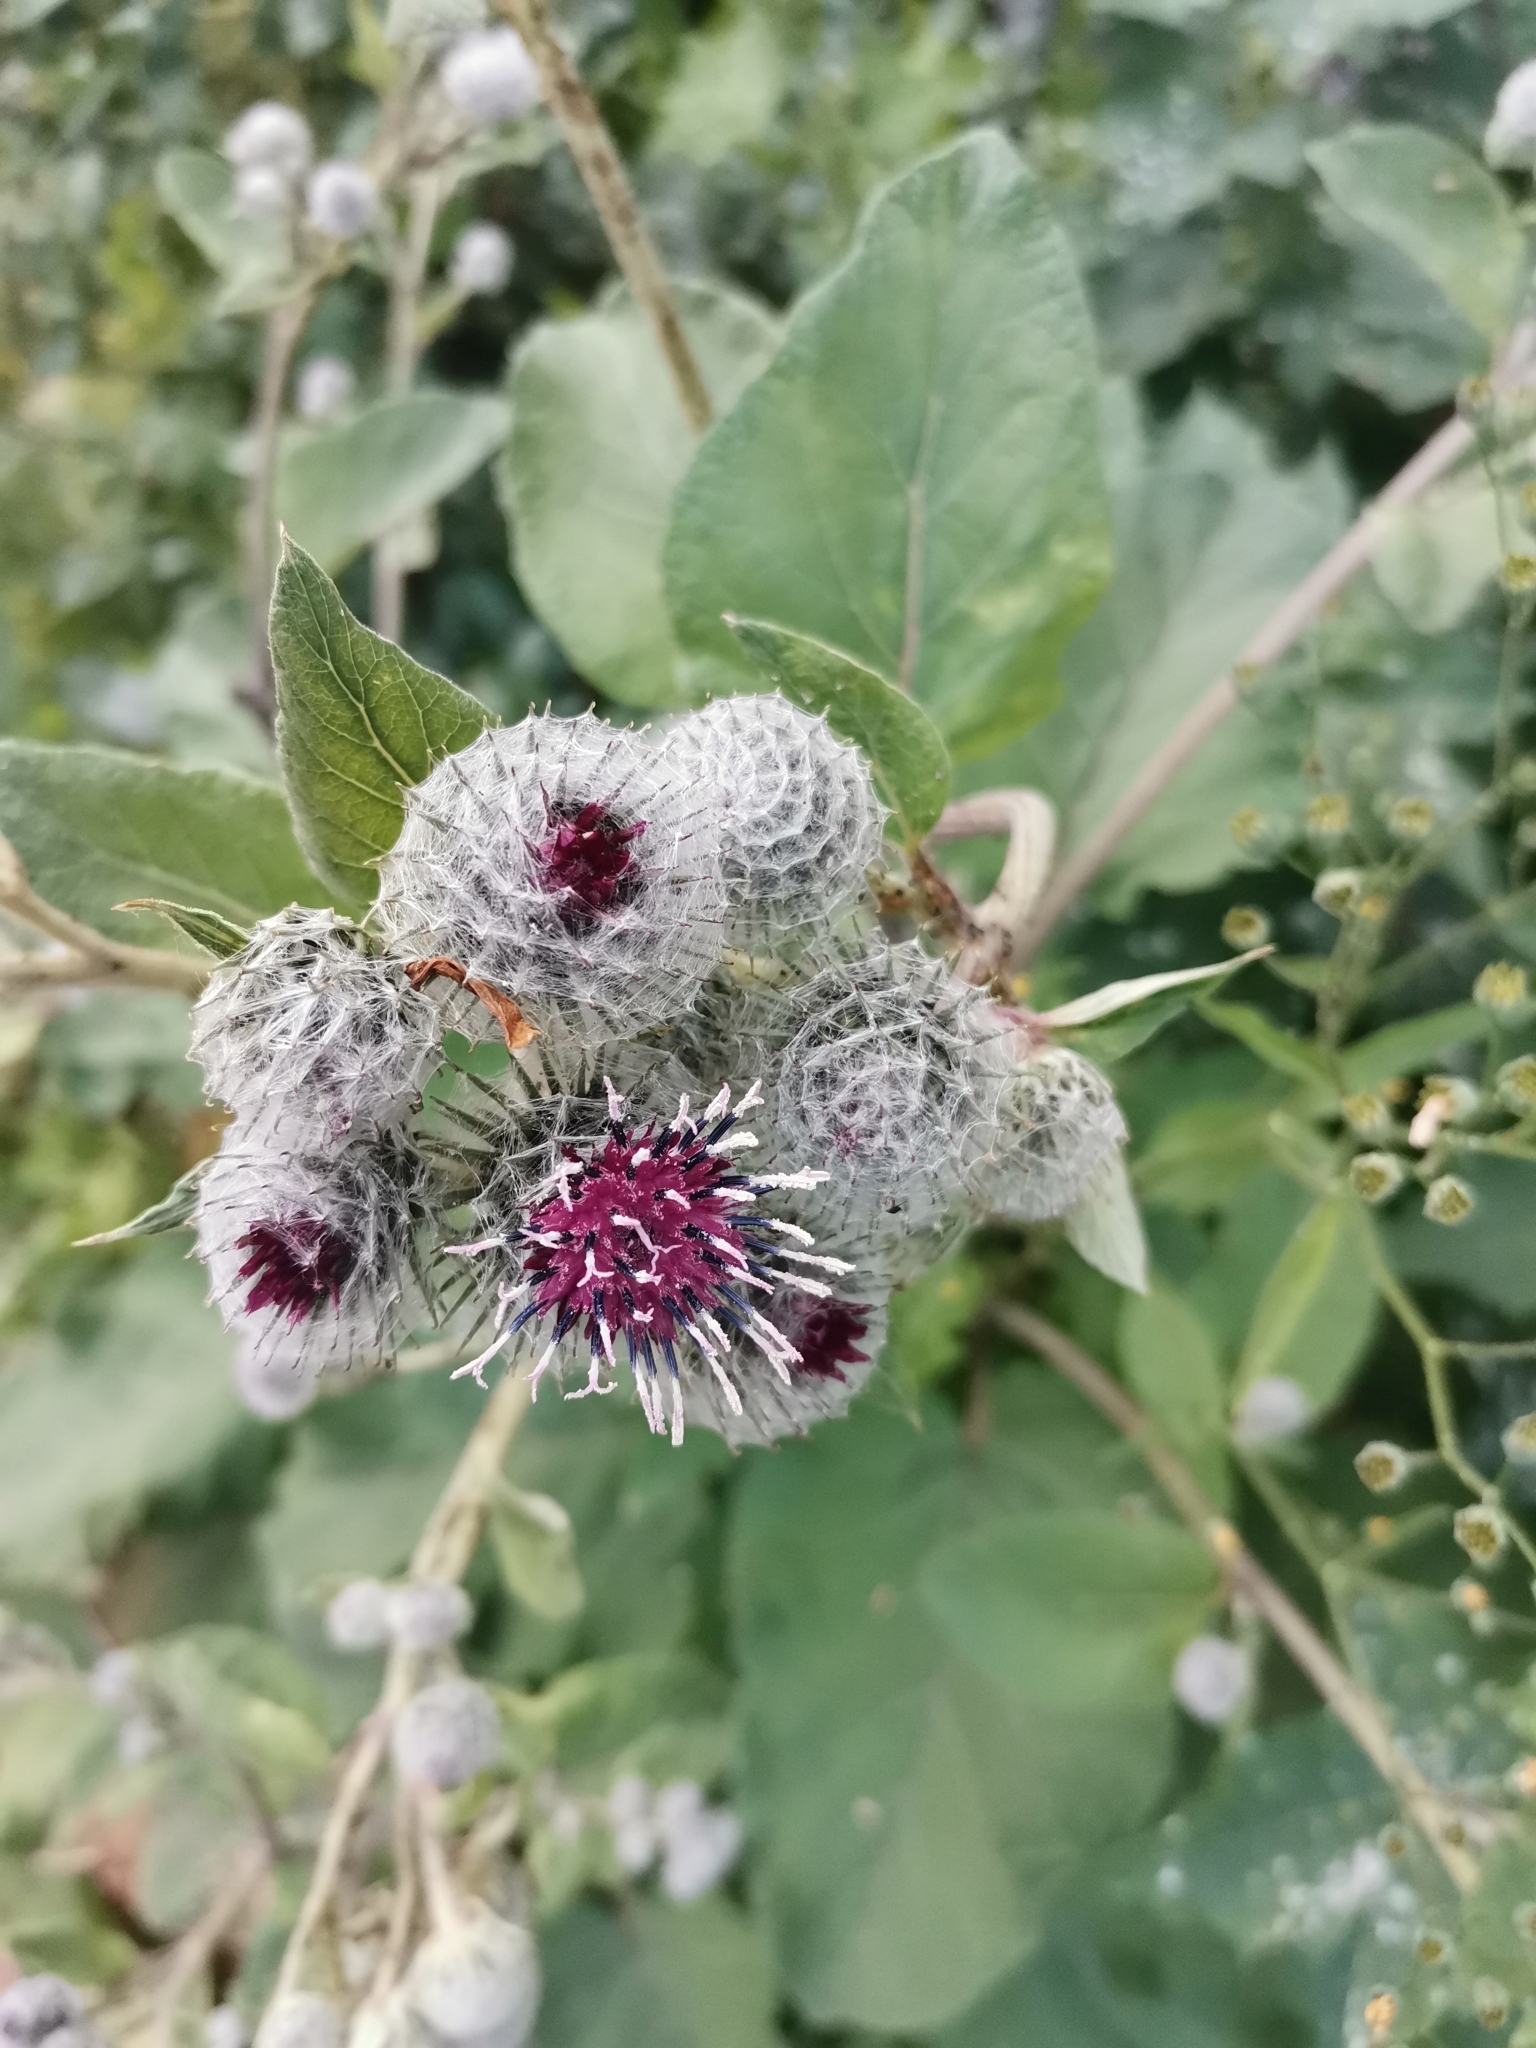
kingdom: Plantae
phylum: Tracheophyta
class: Magnoliopsida
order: Asterales
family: Asteraceae
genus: Arctium
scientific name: Arctium tomentosum
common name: Woolly burdock
